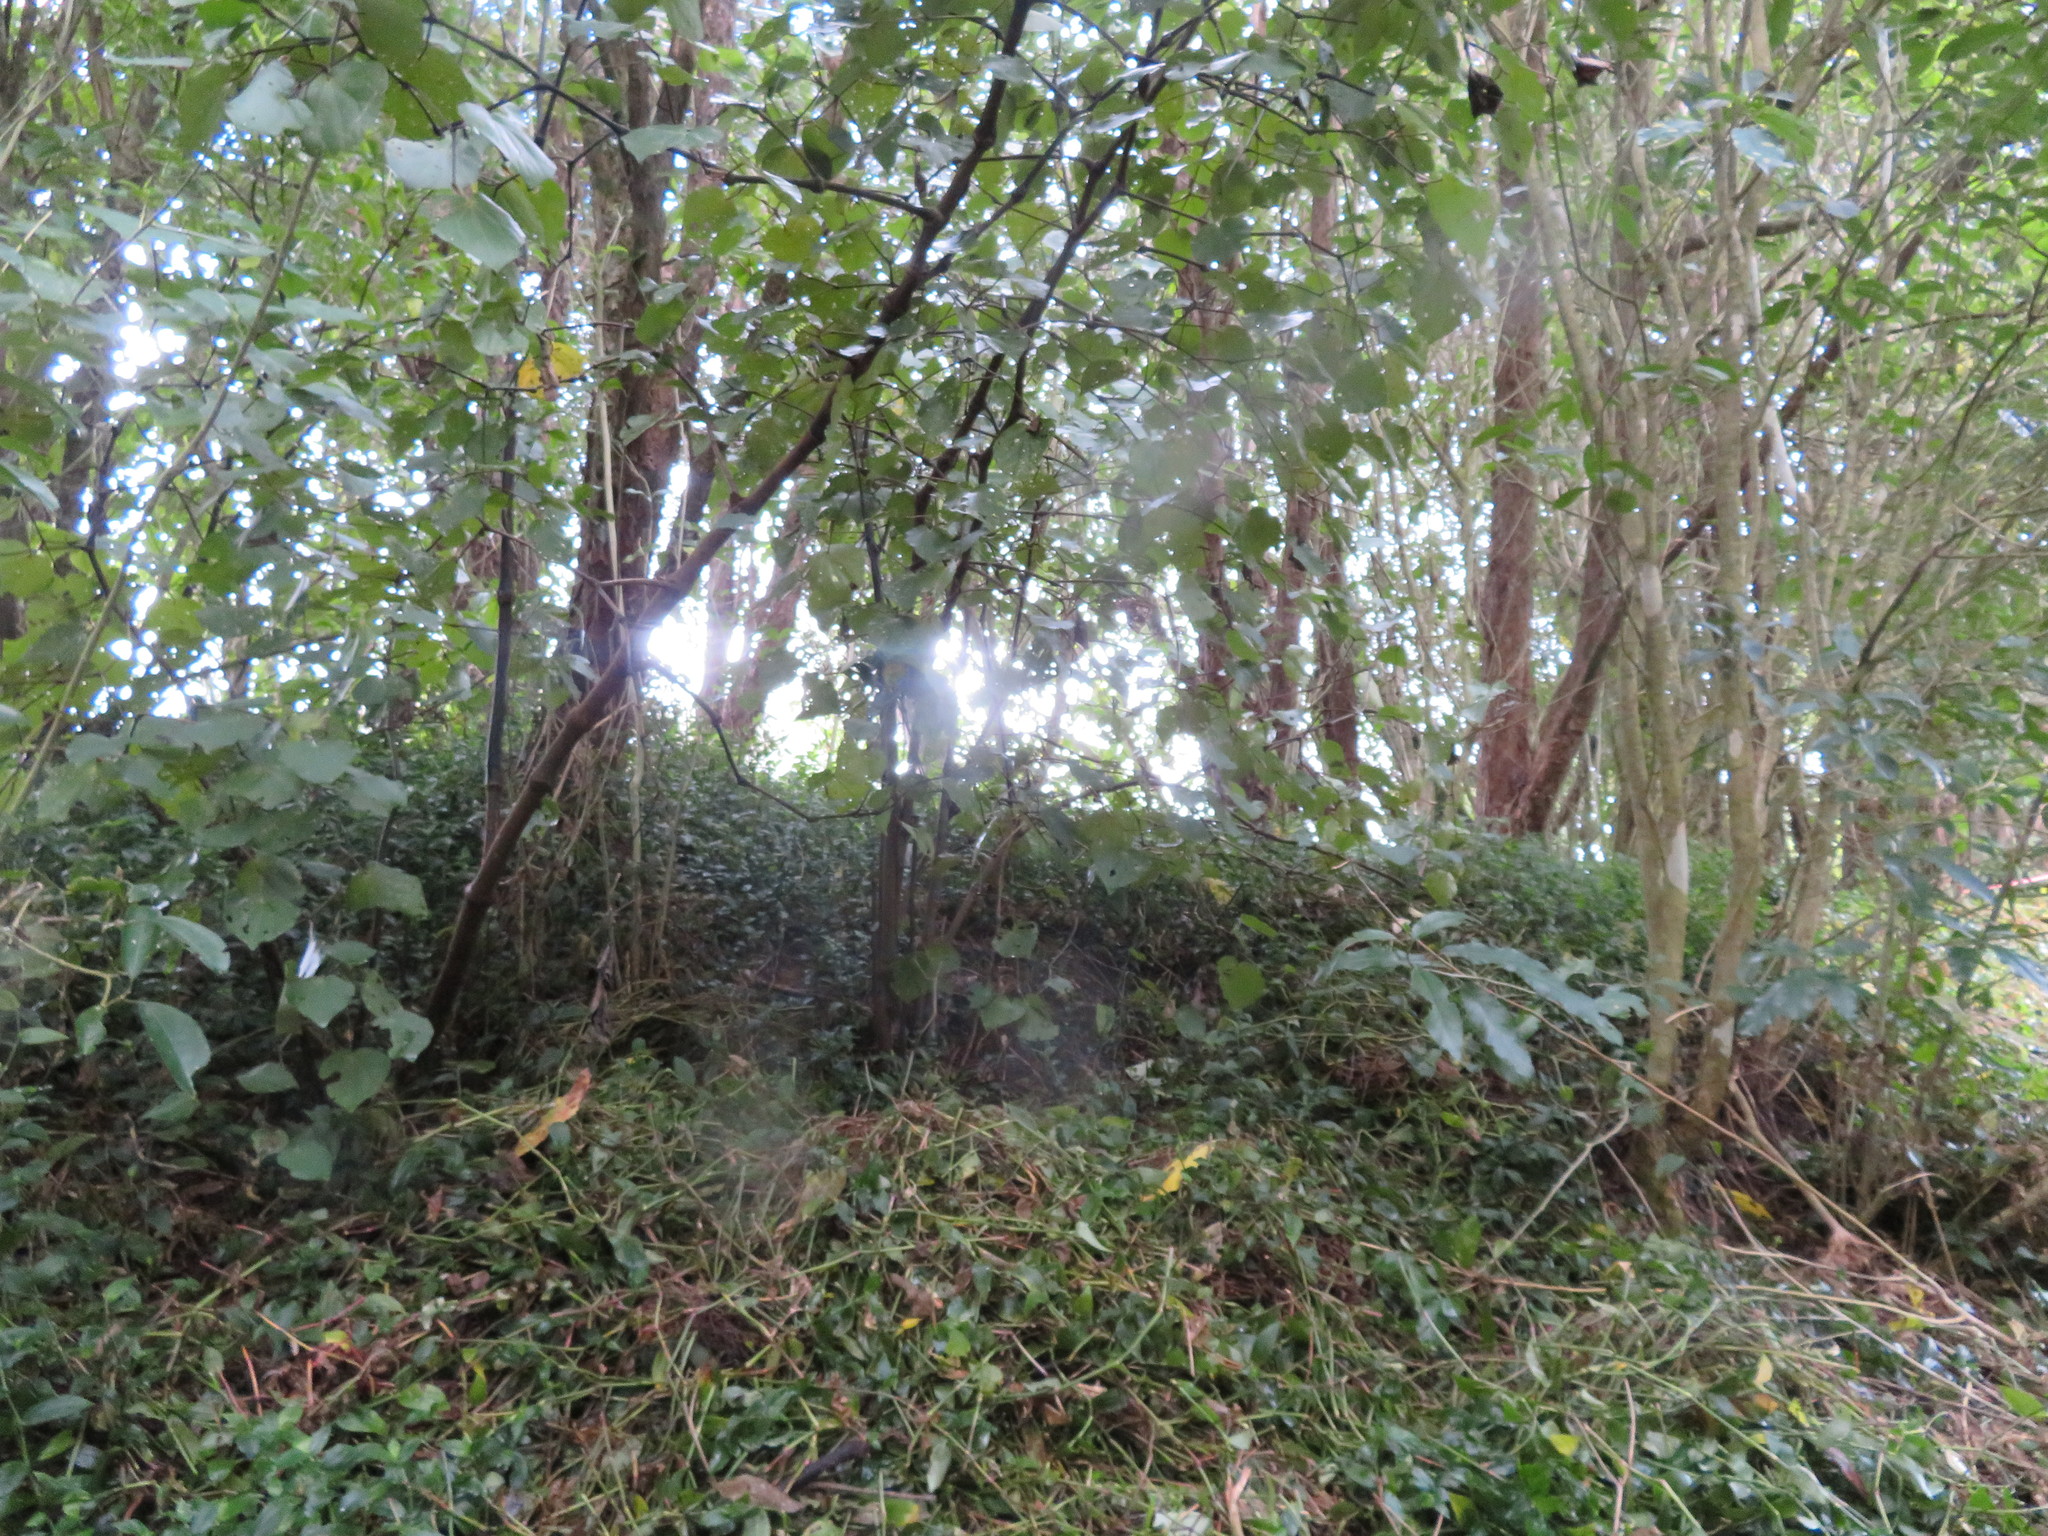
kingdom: Plantae
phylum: Tracheophyta
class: Liliopsida
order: Commelinales
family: Commelinaceae
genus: Tradescantia
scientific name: Tradescantia fluminensis
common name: Wandering-jew
